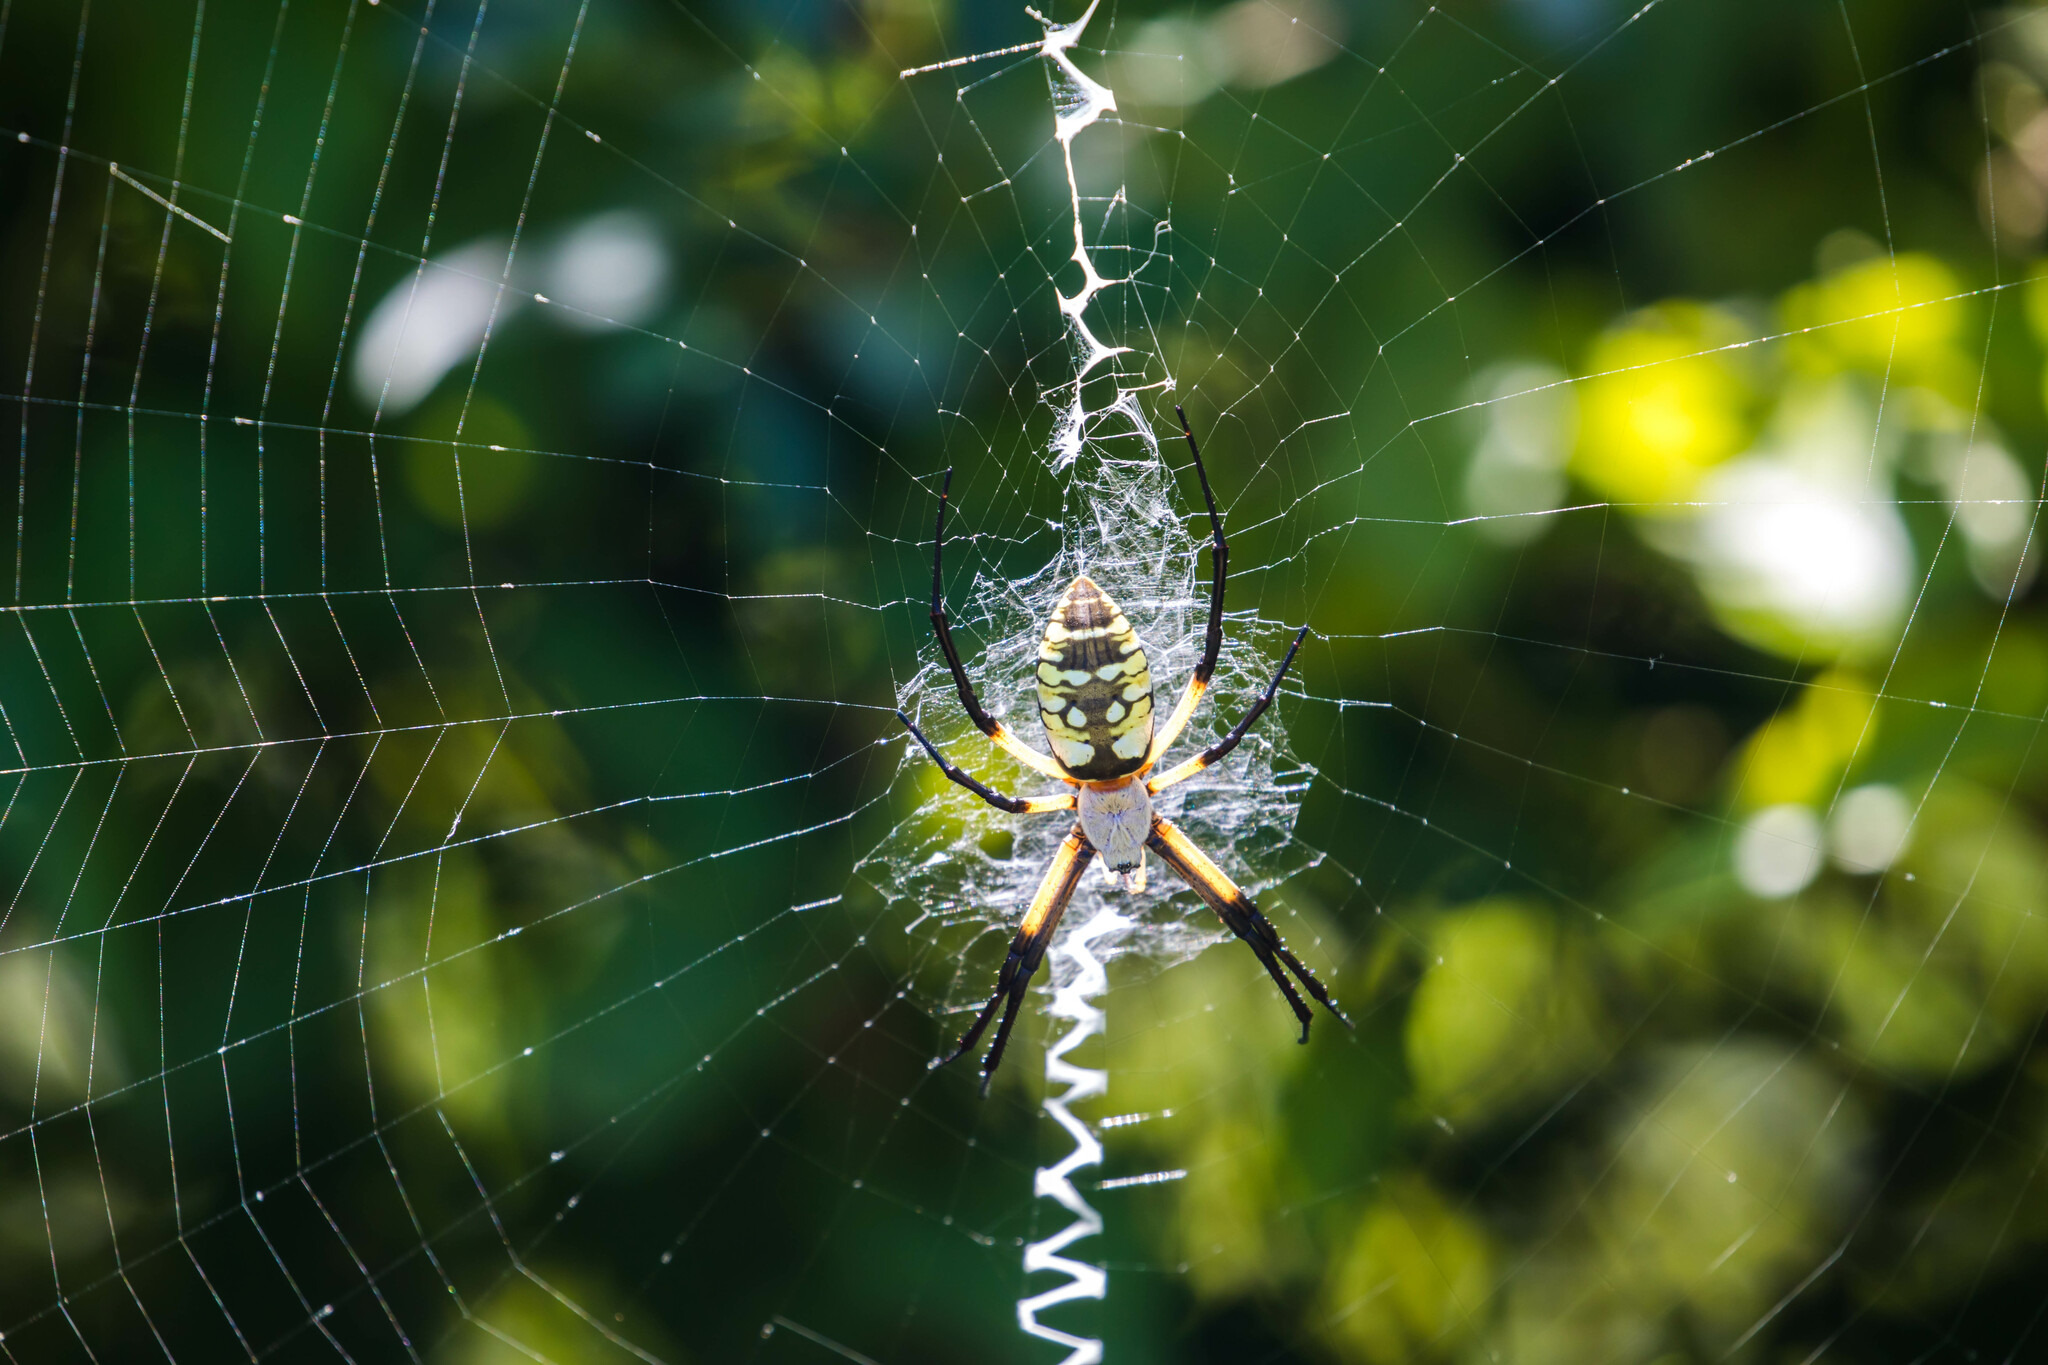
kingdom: Animalia
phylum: Arthropoda
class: Arachnida
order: Araneae
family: Araneidae
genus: Argiope
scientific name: Argiope aurantia
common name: Orb weavers
